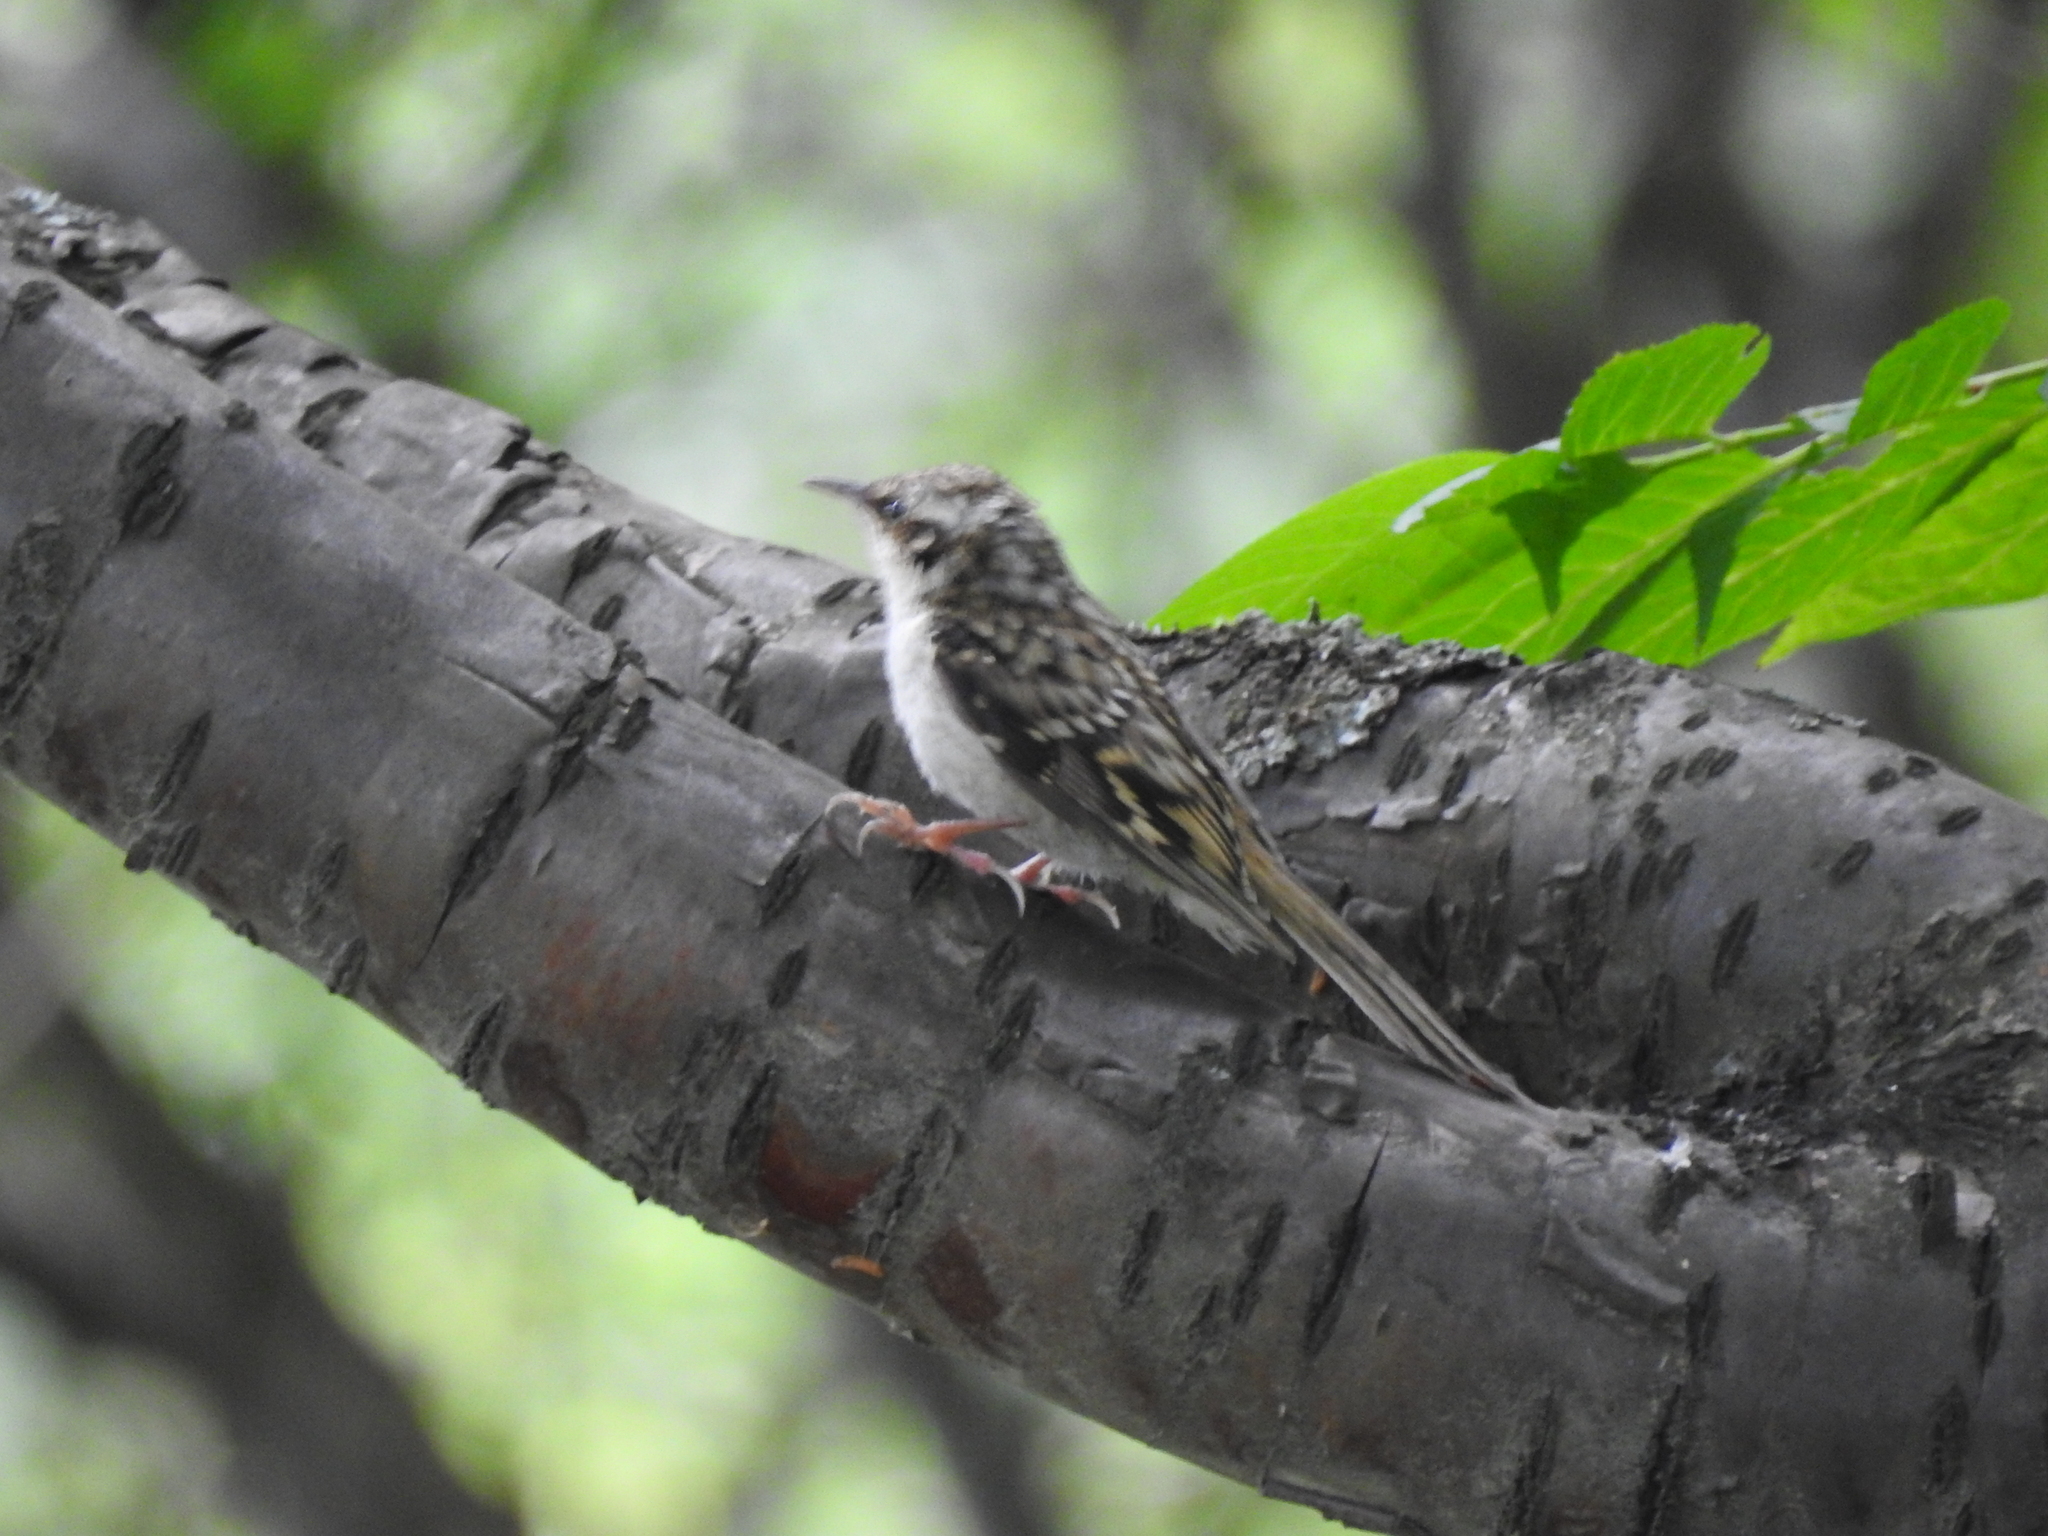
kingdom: Animalia
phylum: Chordata
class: Aves
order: Passeriformes
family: Certhiidae
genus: Certhia
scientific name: Certhia familiaris
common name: Eurasian treecreeper
